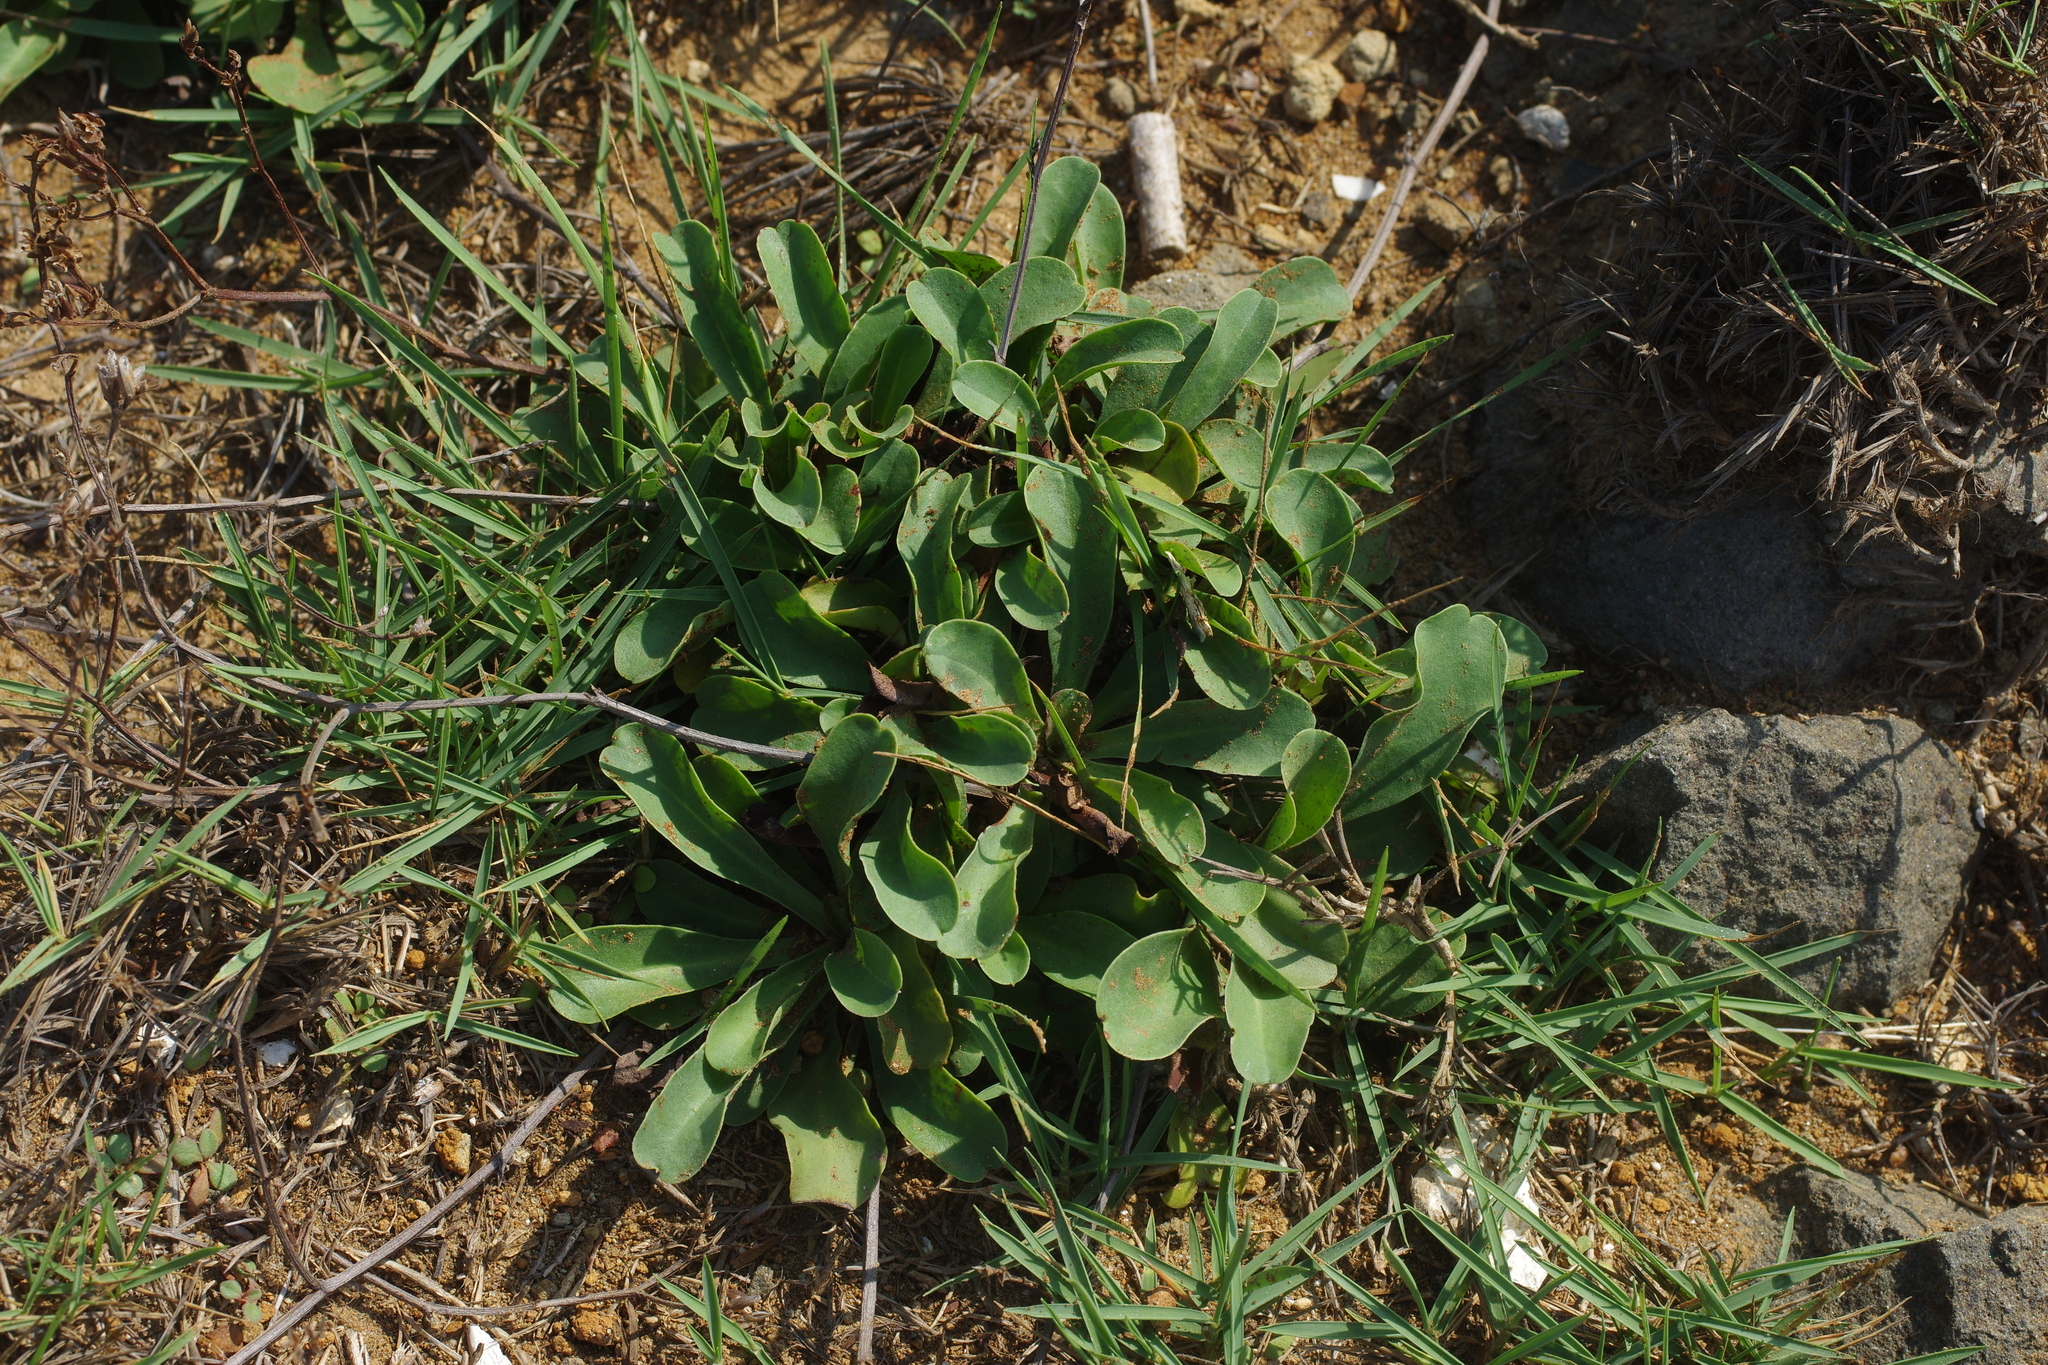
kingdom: Plantae
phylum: Tracheophyta
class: Magnoliopsida
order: Caryophyllales
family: Plumbaginaceae
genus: Limonium
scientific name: Limonium sinense
